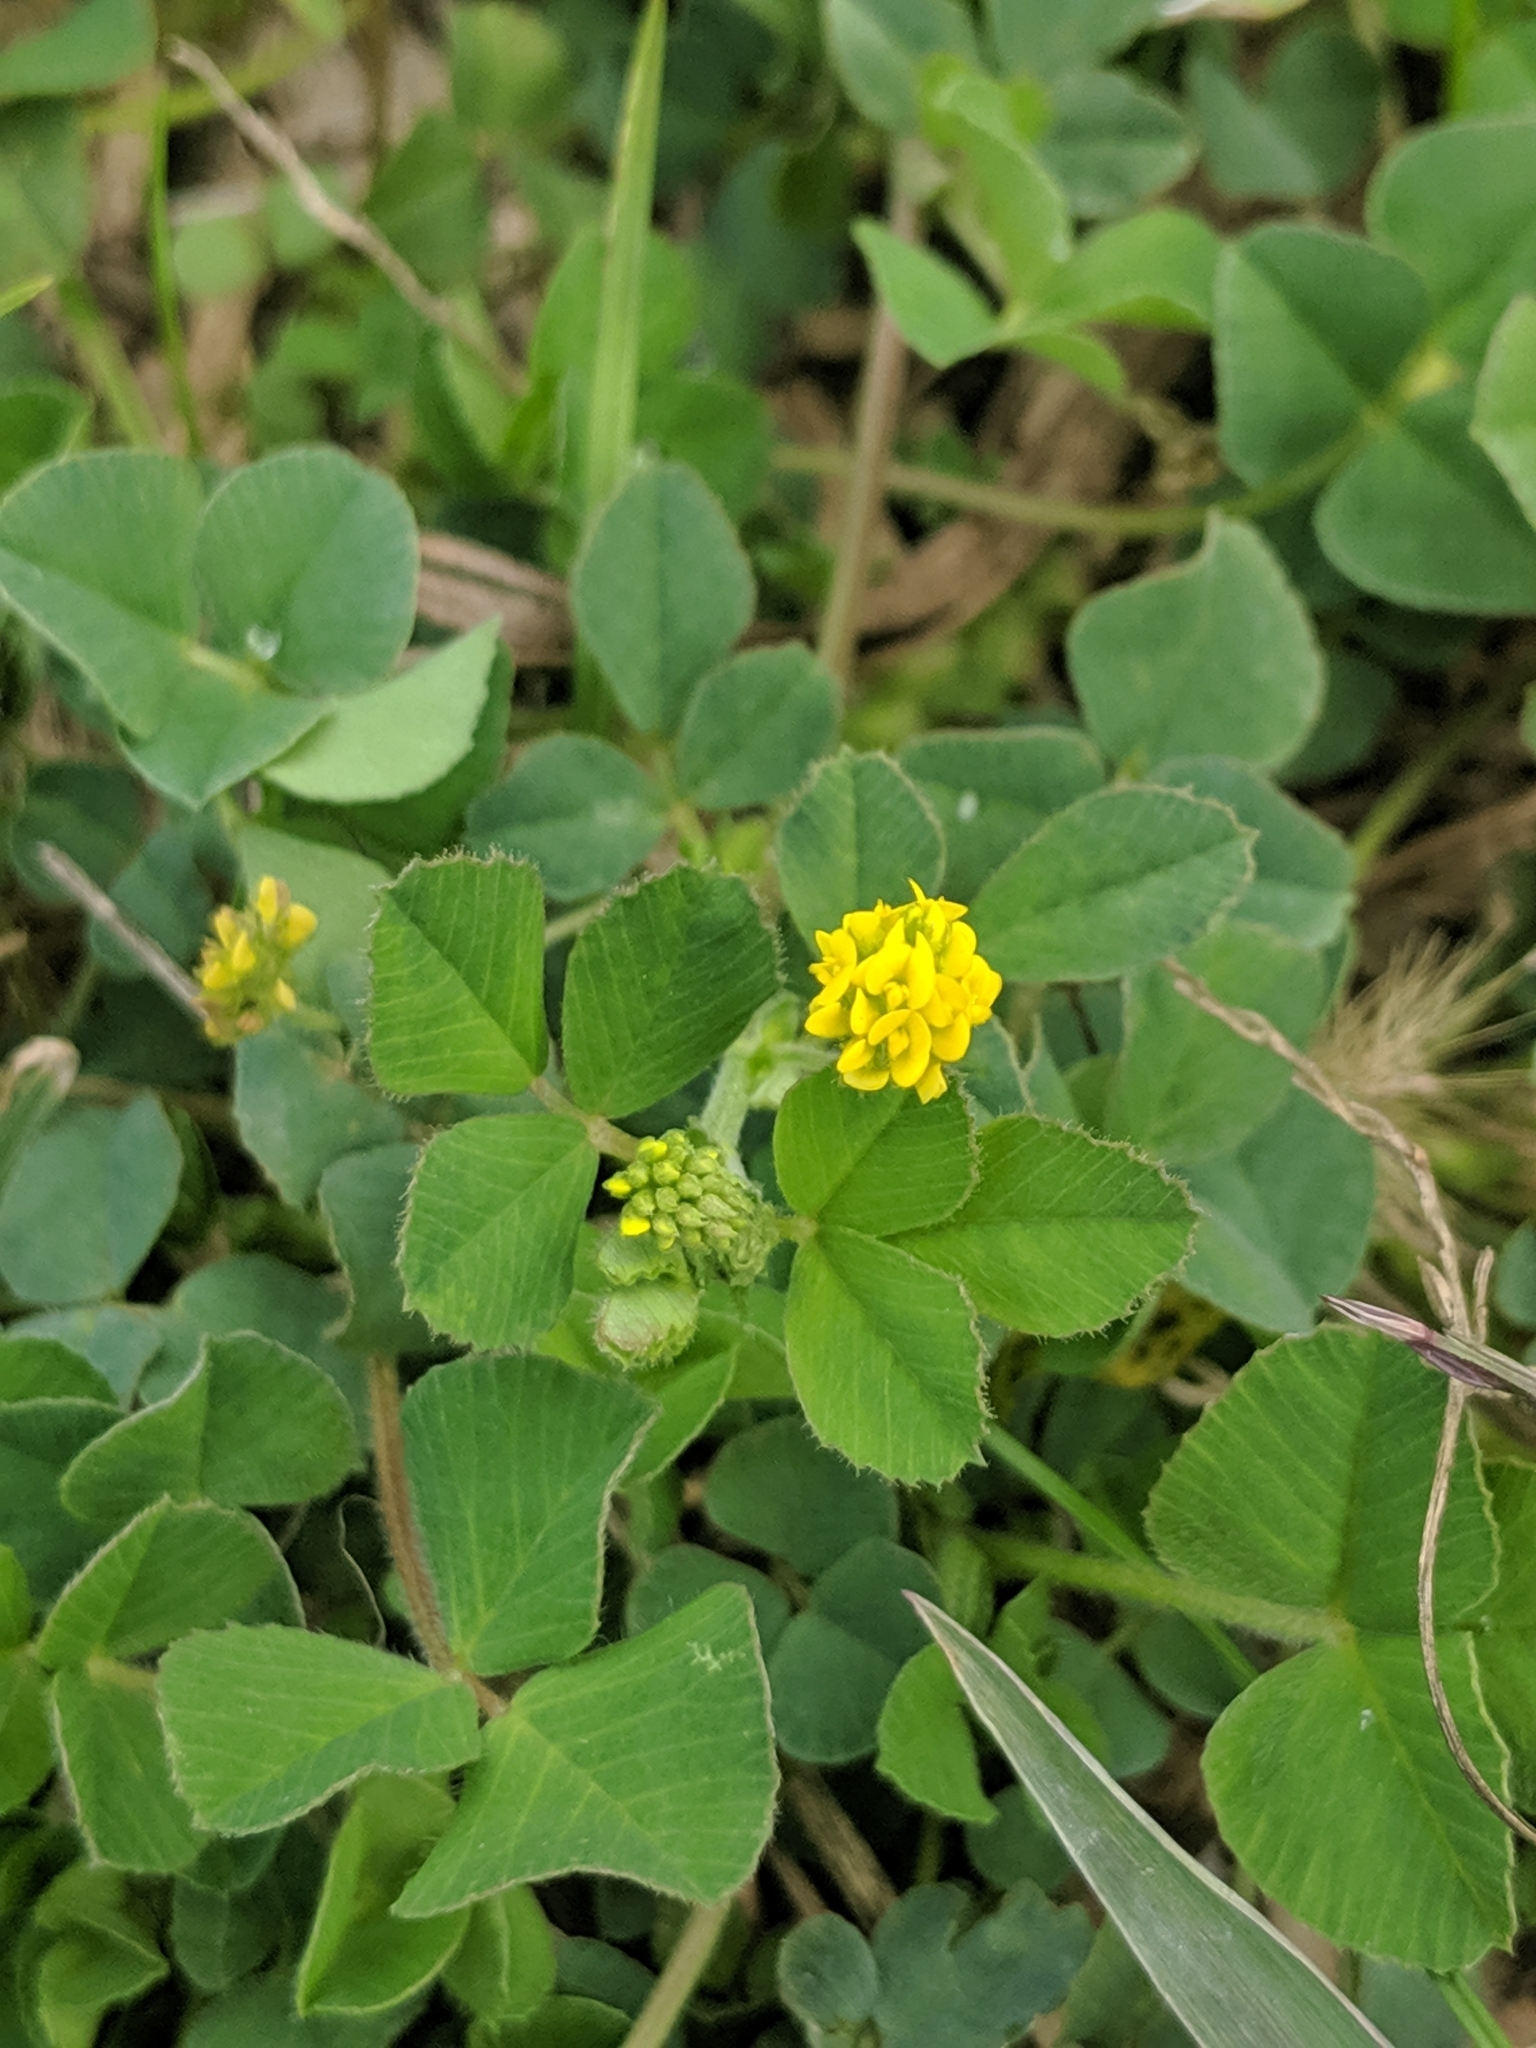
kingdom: Plantae
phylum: Tracheophyta
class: Magnoliopsida
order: Fabales
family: Fabaceae
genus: Medicago
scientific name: Medicago lupulina
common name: Black medick
